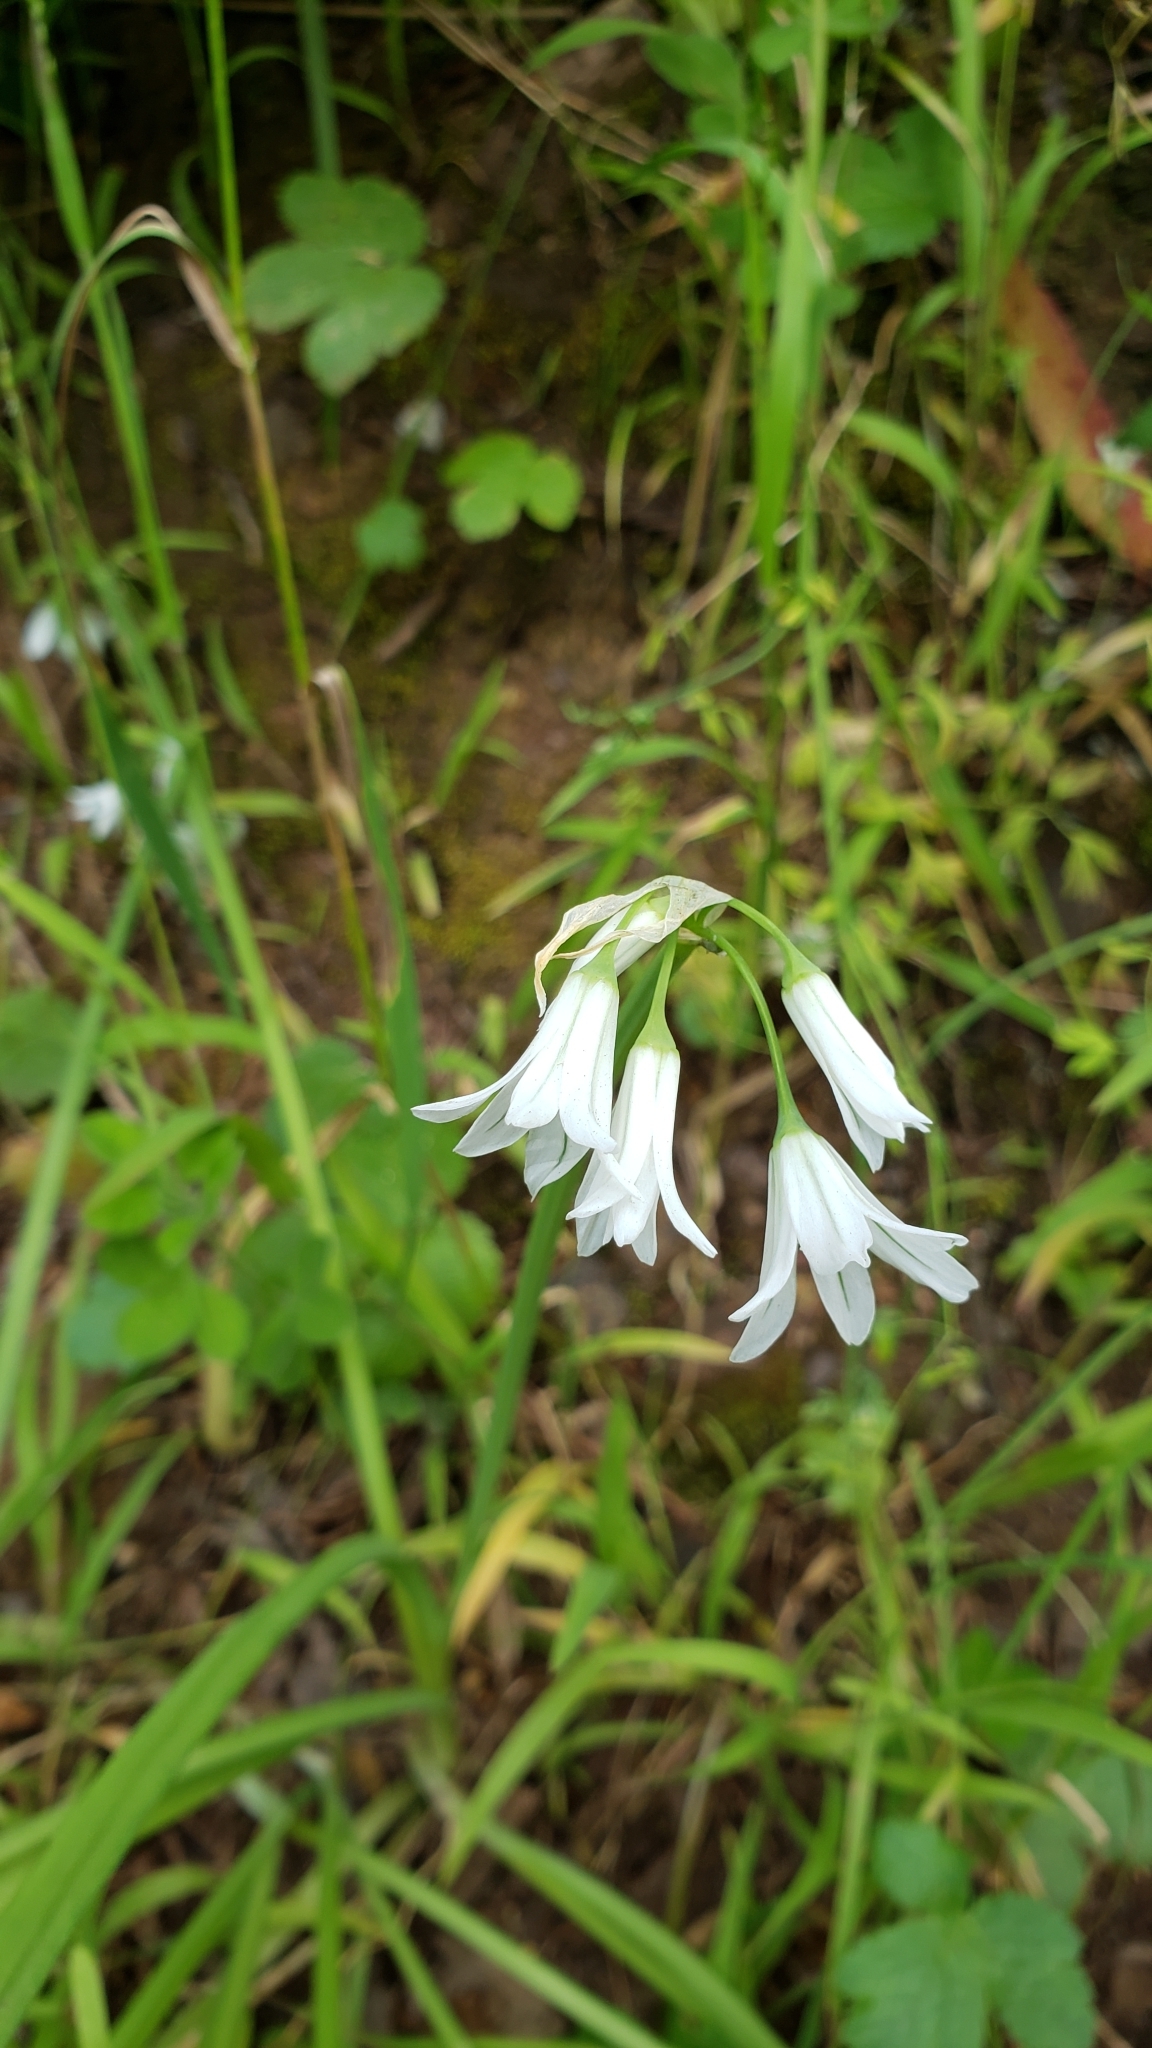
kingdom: Plantae
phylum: Tracheophyta
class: Liliopsida
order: Asparagales
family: Amaryllidaceae
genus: Allium
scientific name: Allium triquetrum
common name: Three-cornered garlic
